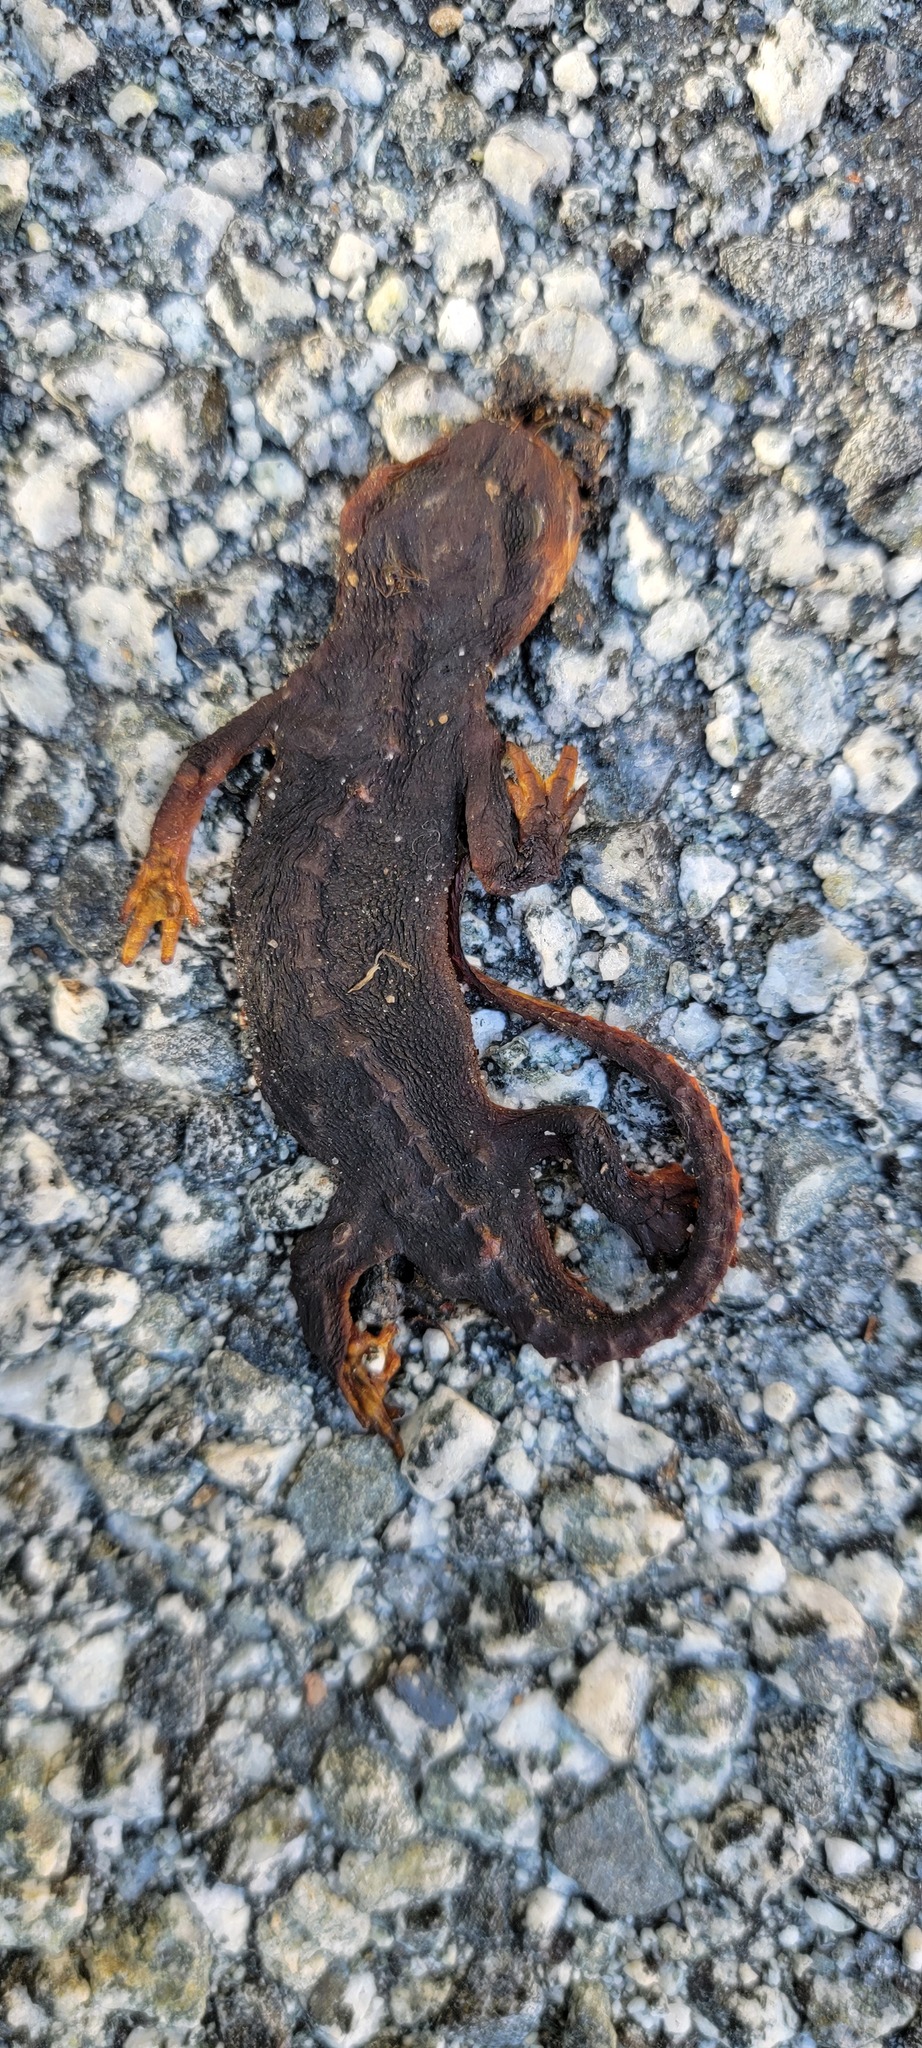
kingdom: Animalia
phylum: Chordata
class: Amphibia
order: Caudata
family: Salamandridae
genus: Taricha
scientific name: Taricha
